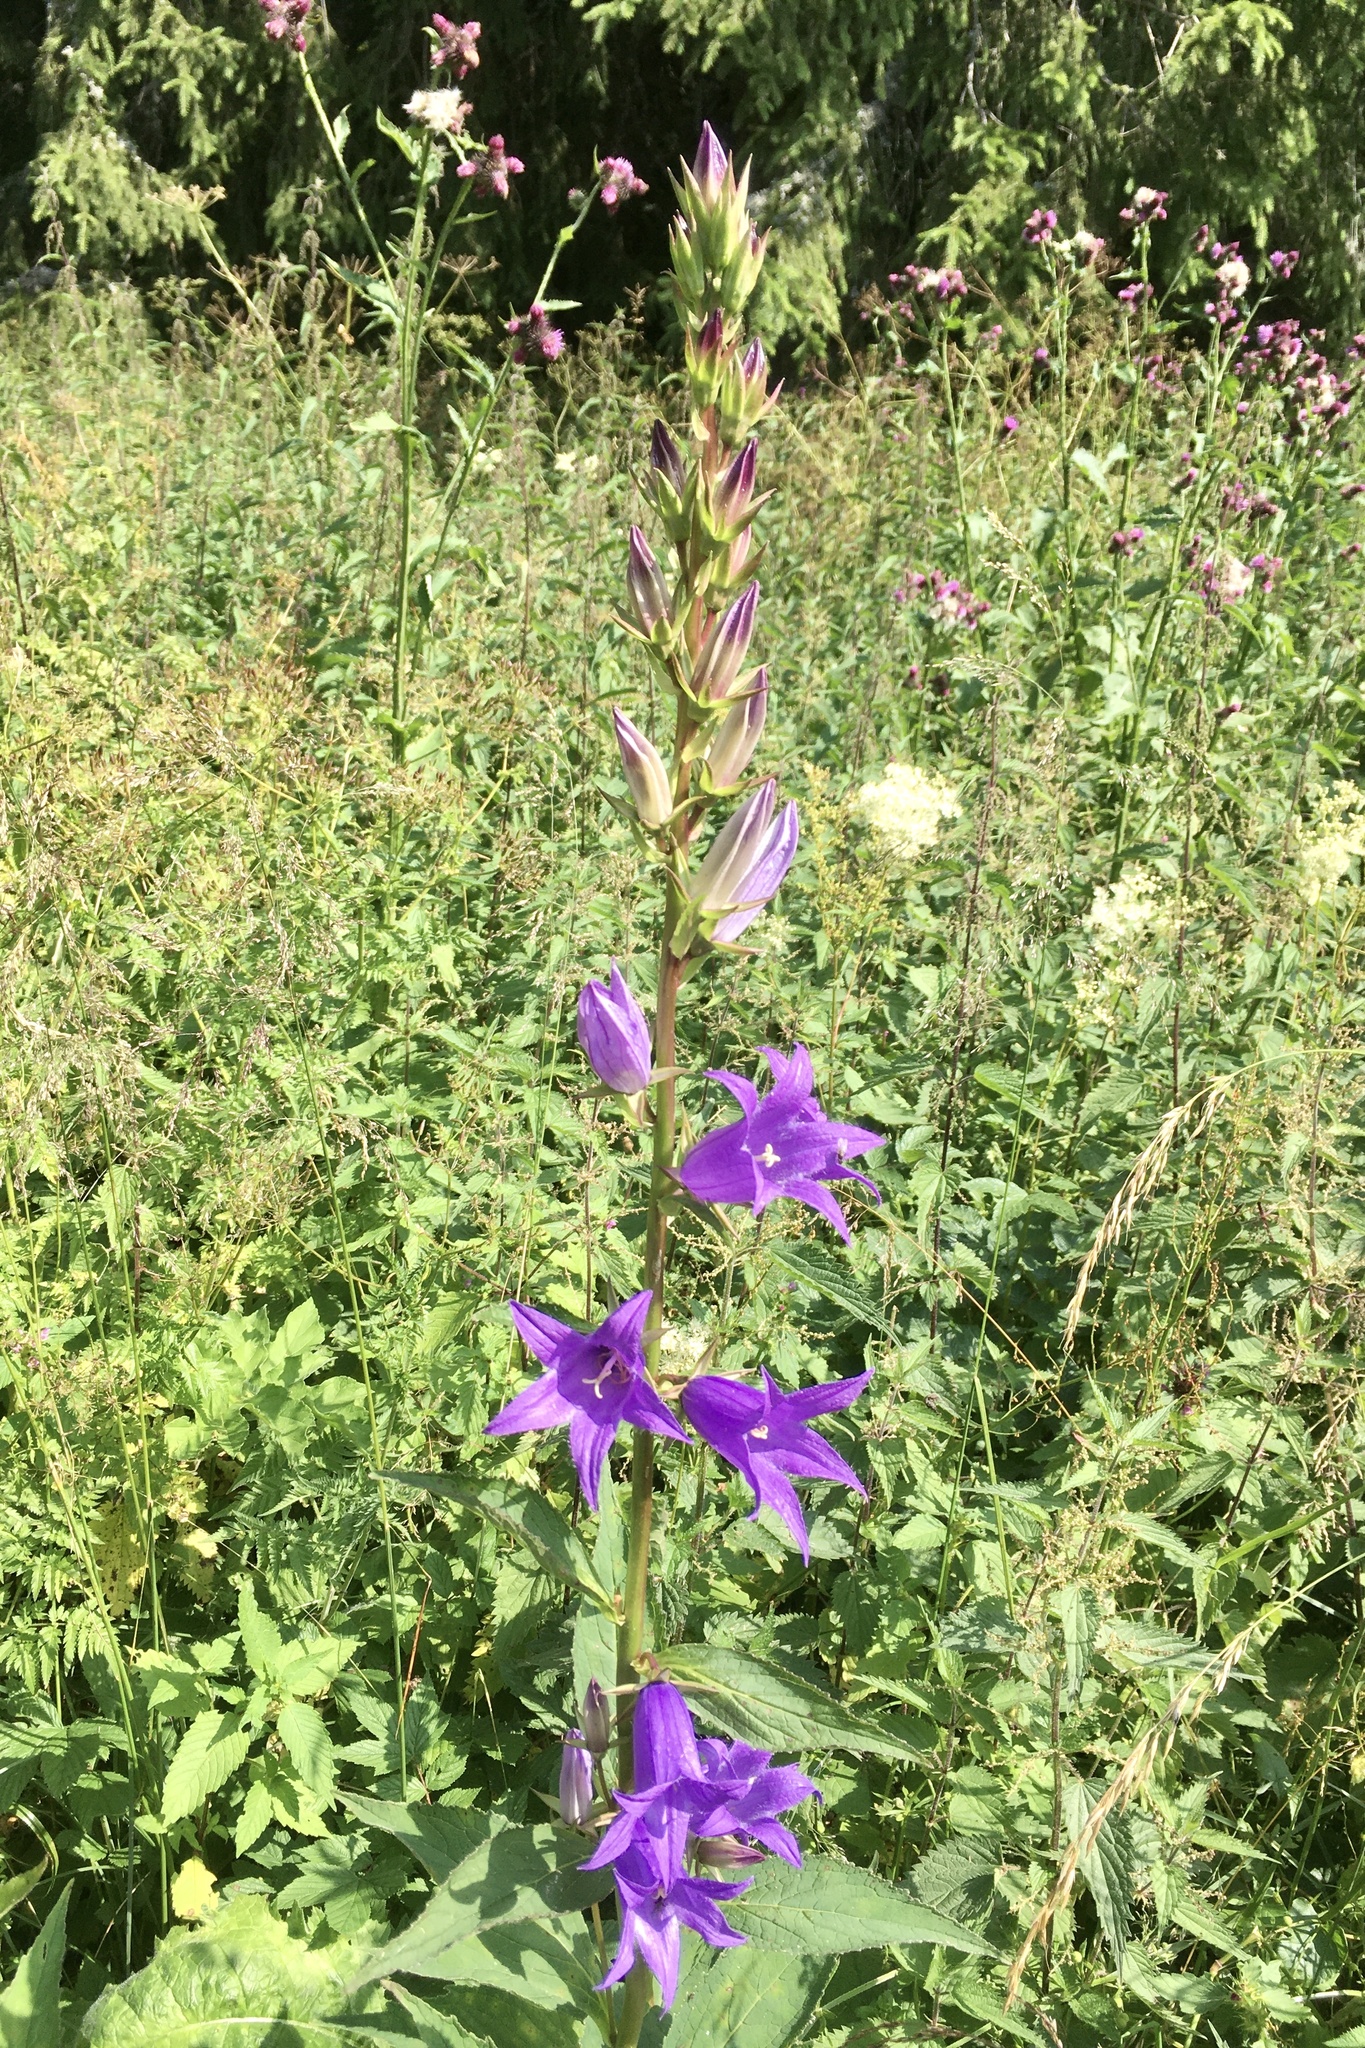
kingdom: Plantae
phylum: Tracheophyta
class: Magnoliopsida
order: Asterales
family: Campanulaceae
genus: Campanula
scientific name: Campanula latifolia
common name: Giant bellflower
